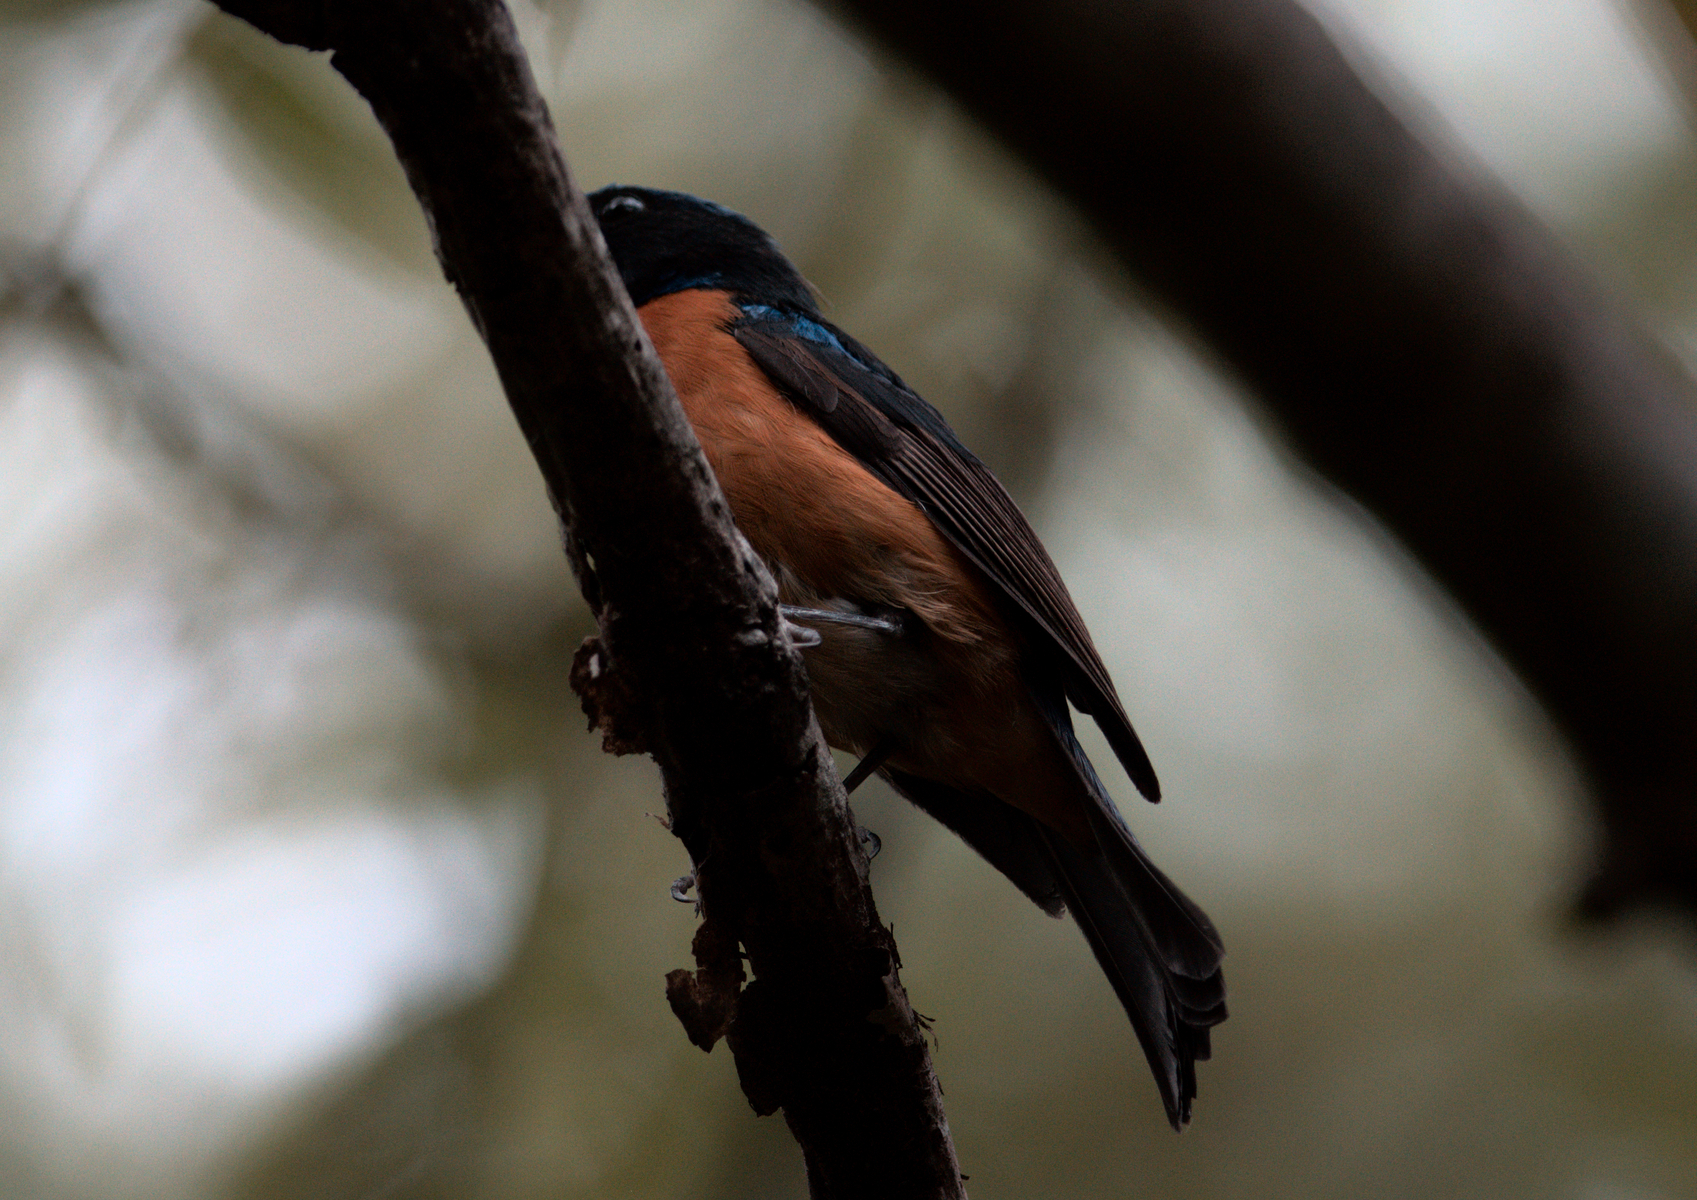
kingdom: Animalia
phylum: Chordata
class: Aves
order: Passeriformes
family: Muscicapidae
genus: Niltava
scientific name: Niltava sundara
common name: Rufous-bellied niltava
